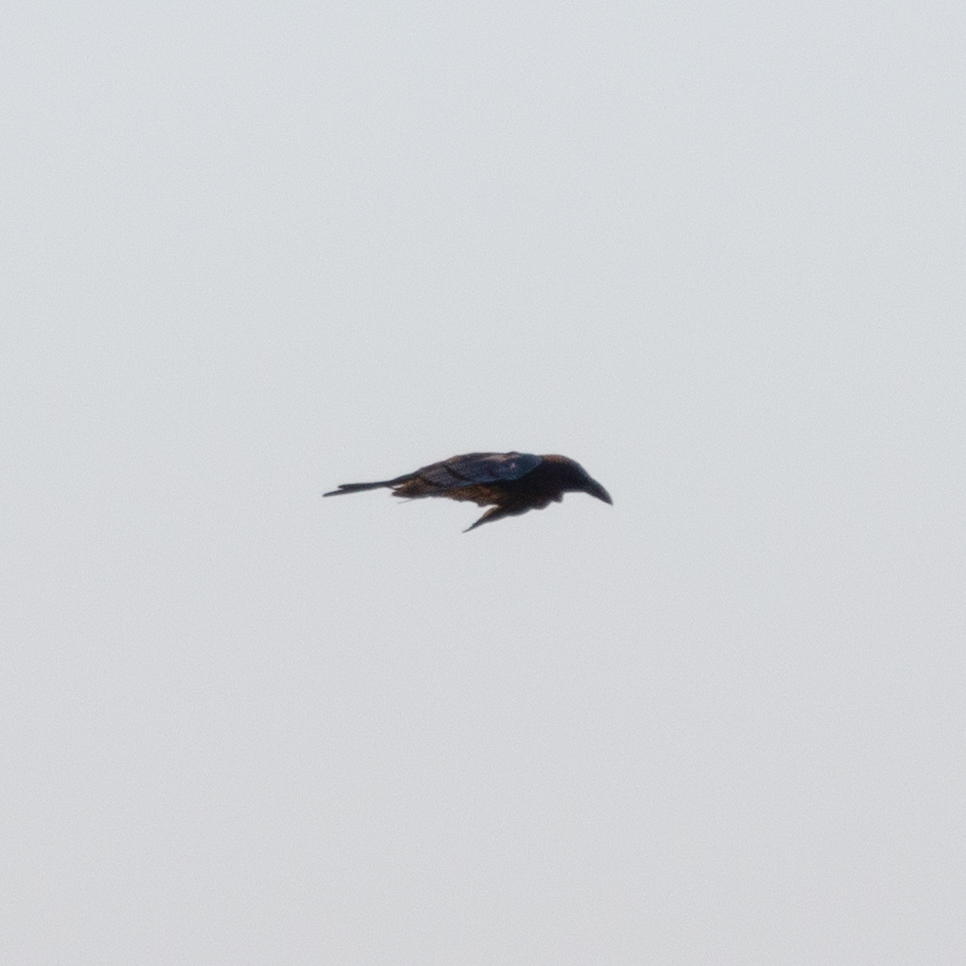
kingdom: Animalia
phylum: Chordata
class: Aves
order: Passeriformes
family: Corvidae
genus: Corvus
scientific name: Corvus corax
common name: Common raven
